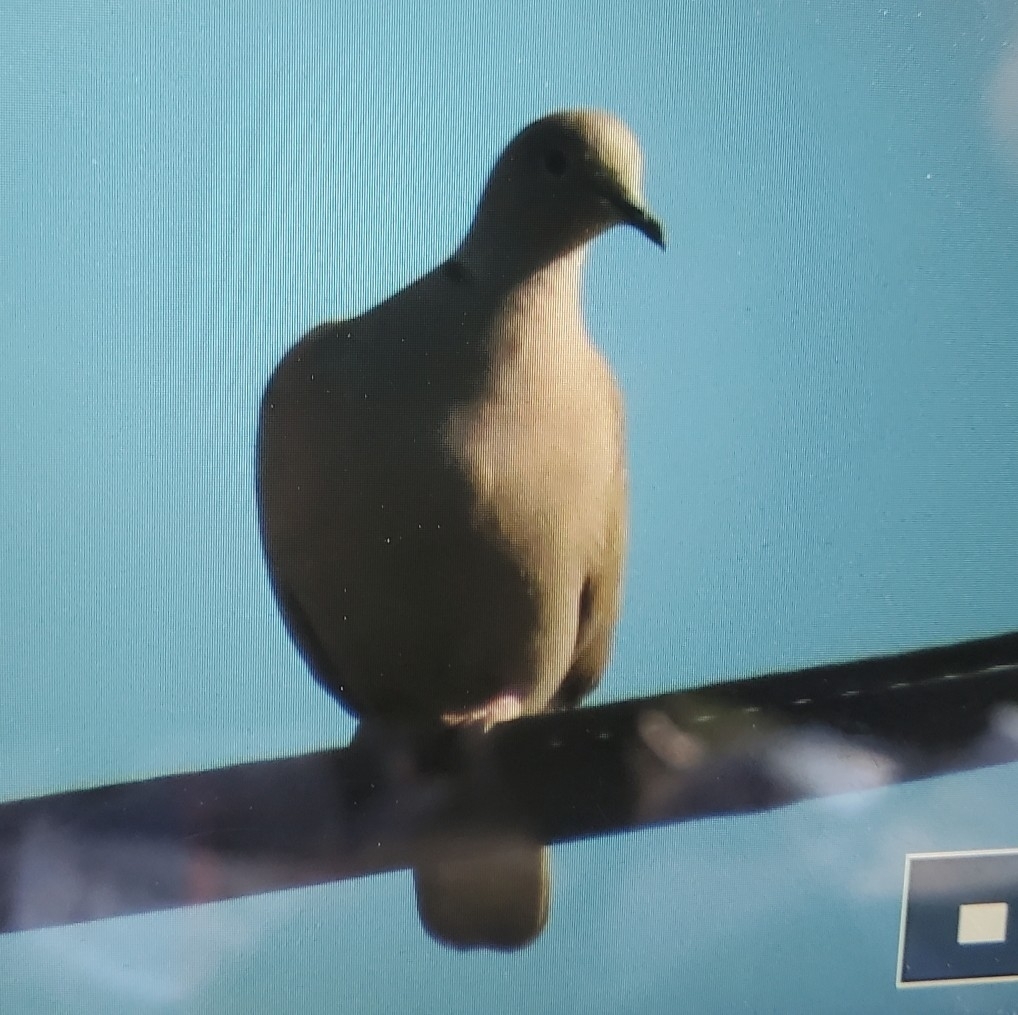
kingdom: Animalia
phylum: Chordata
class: Aves
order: Columbiformes
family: Columbidae
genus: Streptopelia
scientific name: Streptopelia decaocto
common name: Eurasian collared dove
